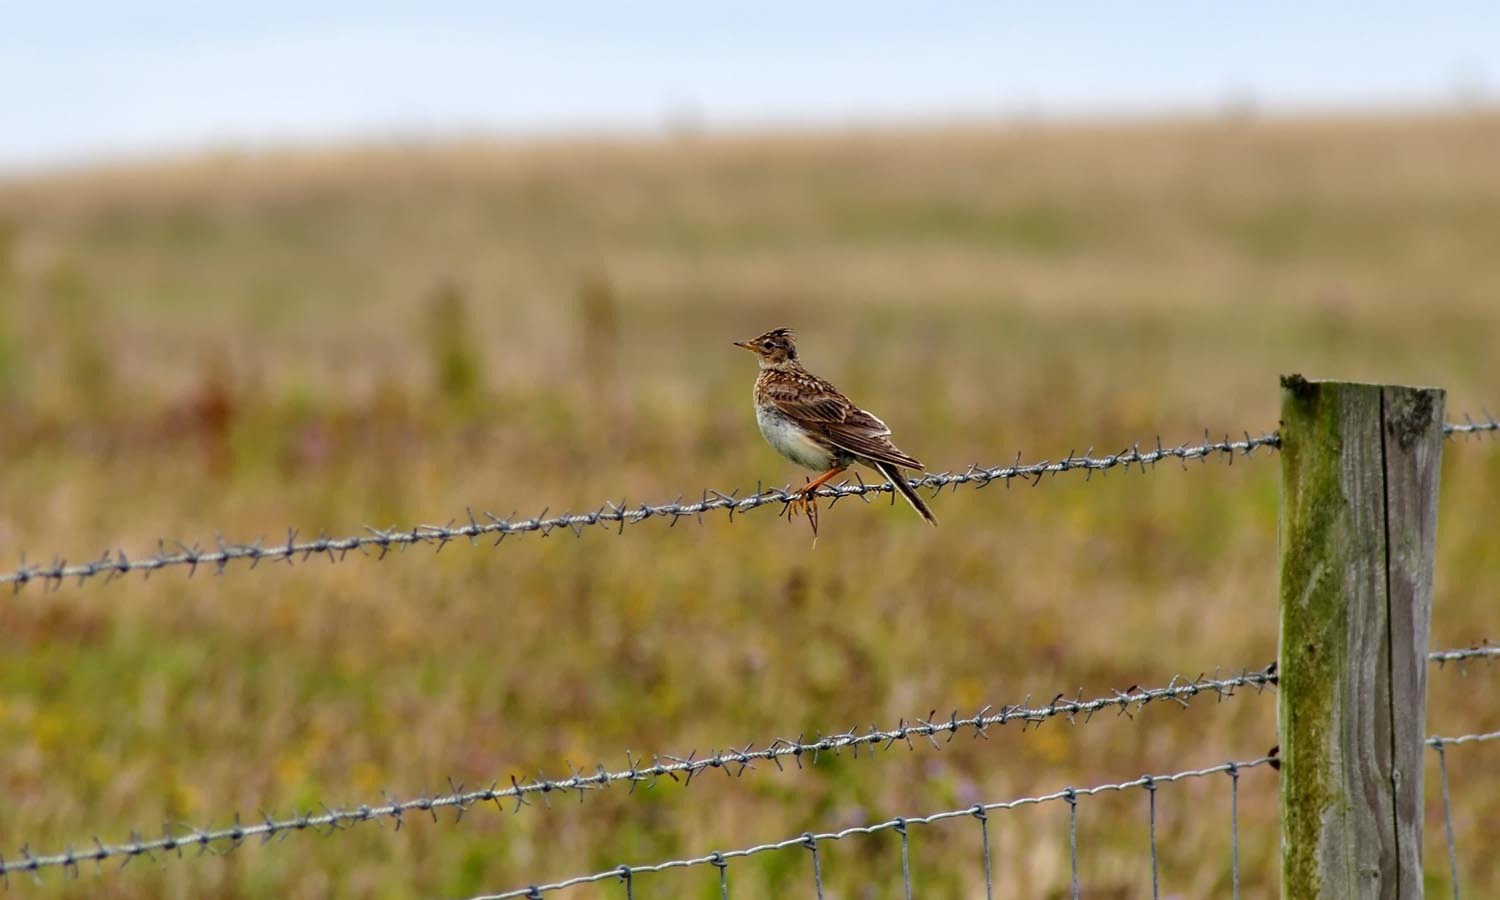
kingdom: Animalia
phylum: Chordata
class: Aves
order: Passeriformes
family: Alaudidae
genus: Alauda
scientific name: Alauda arvensis
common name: Eurasian skylark
